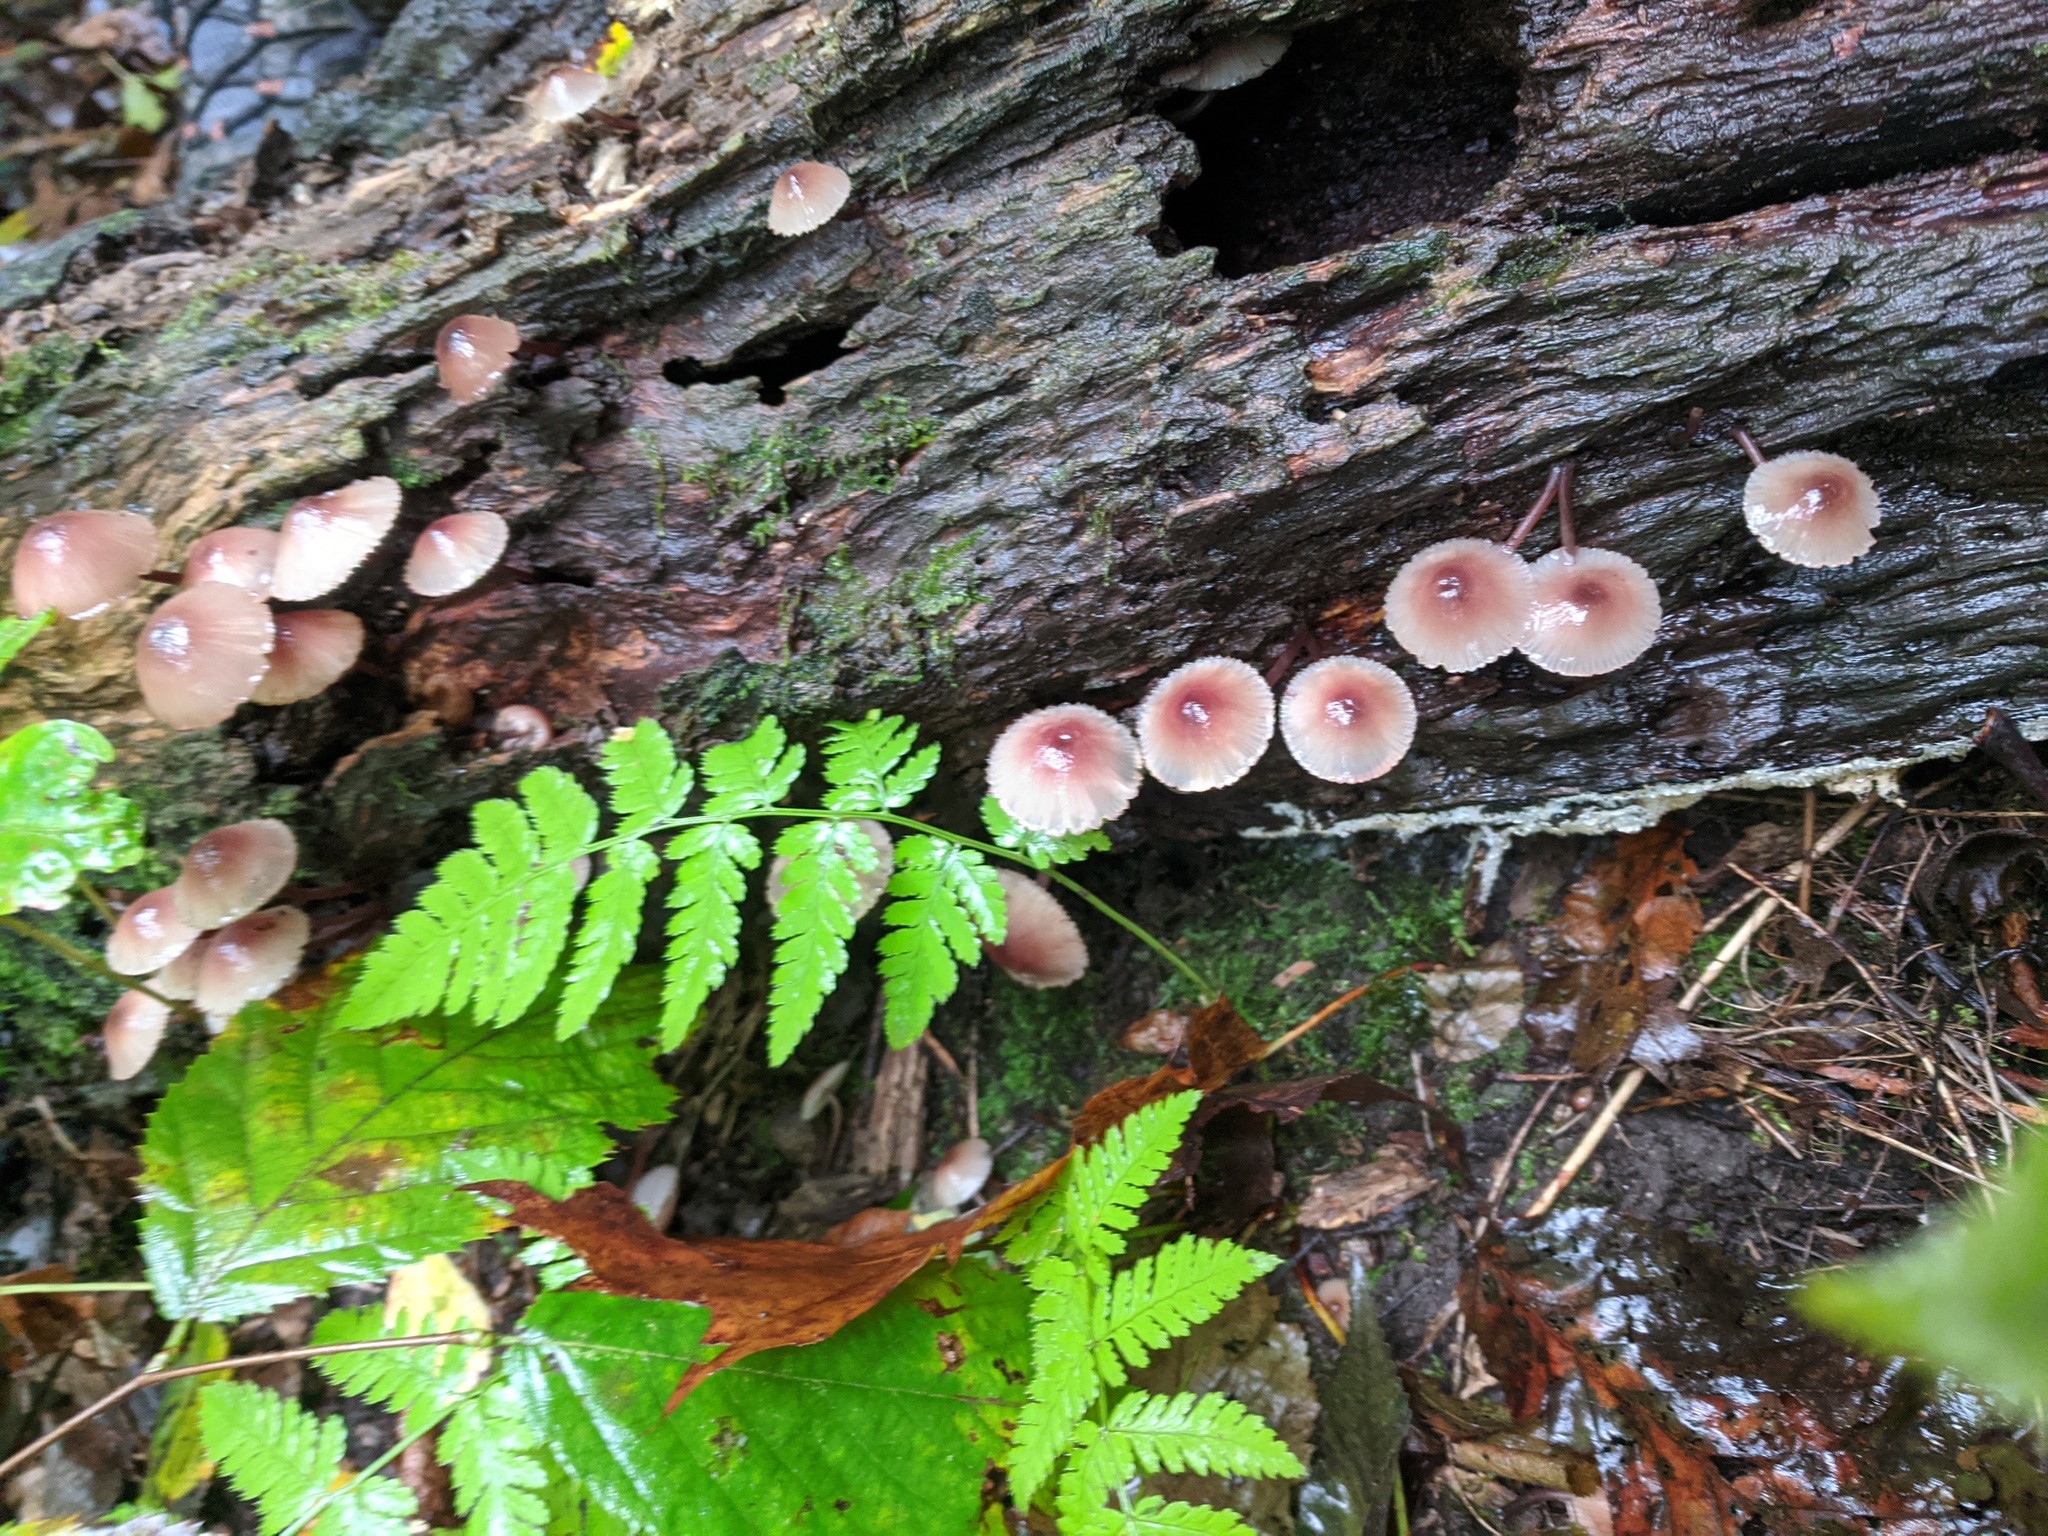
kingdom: Fungi
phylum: Basidiomycota
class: Agaricomycetes
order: Agaricales
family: Mycenaceae
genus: Mycena
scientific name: Mycena haematopus
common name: Burgundydrop bonnet
